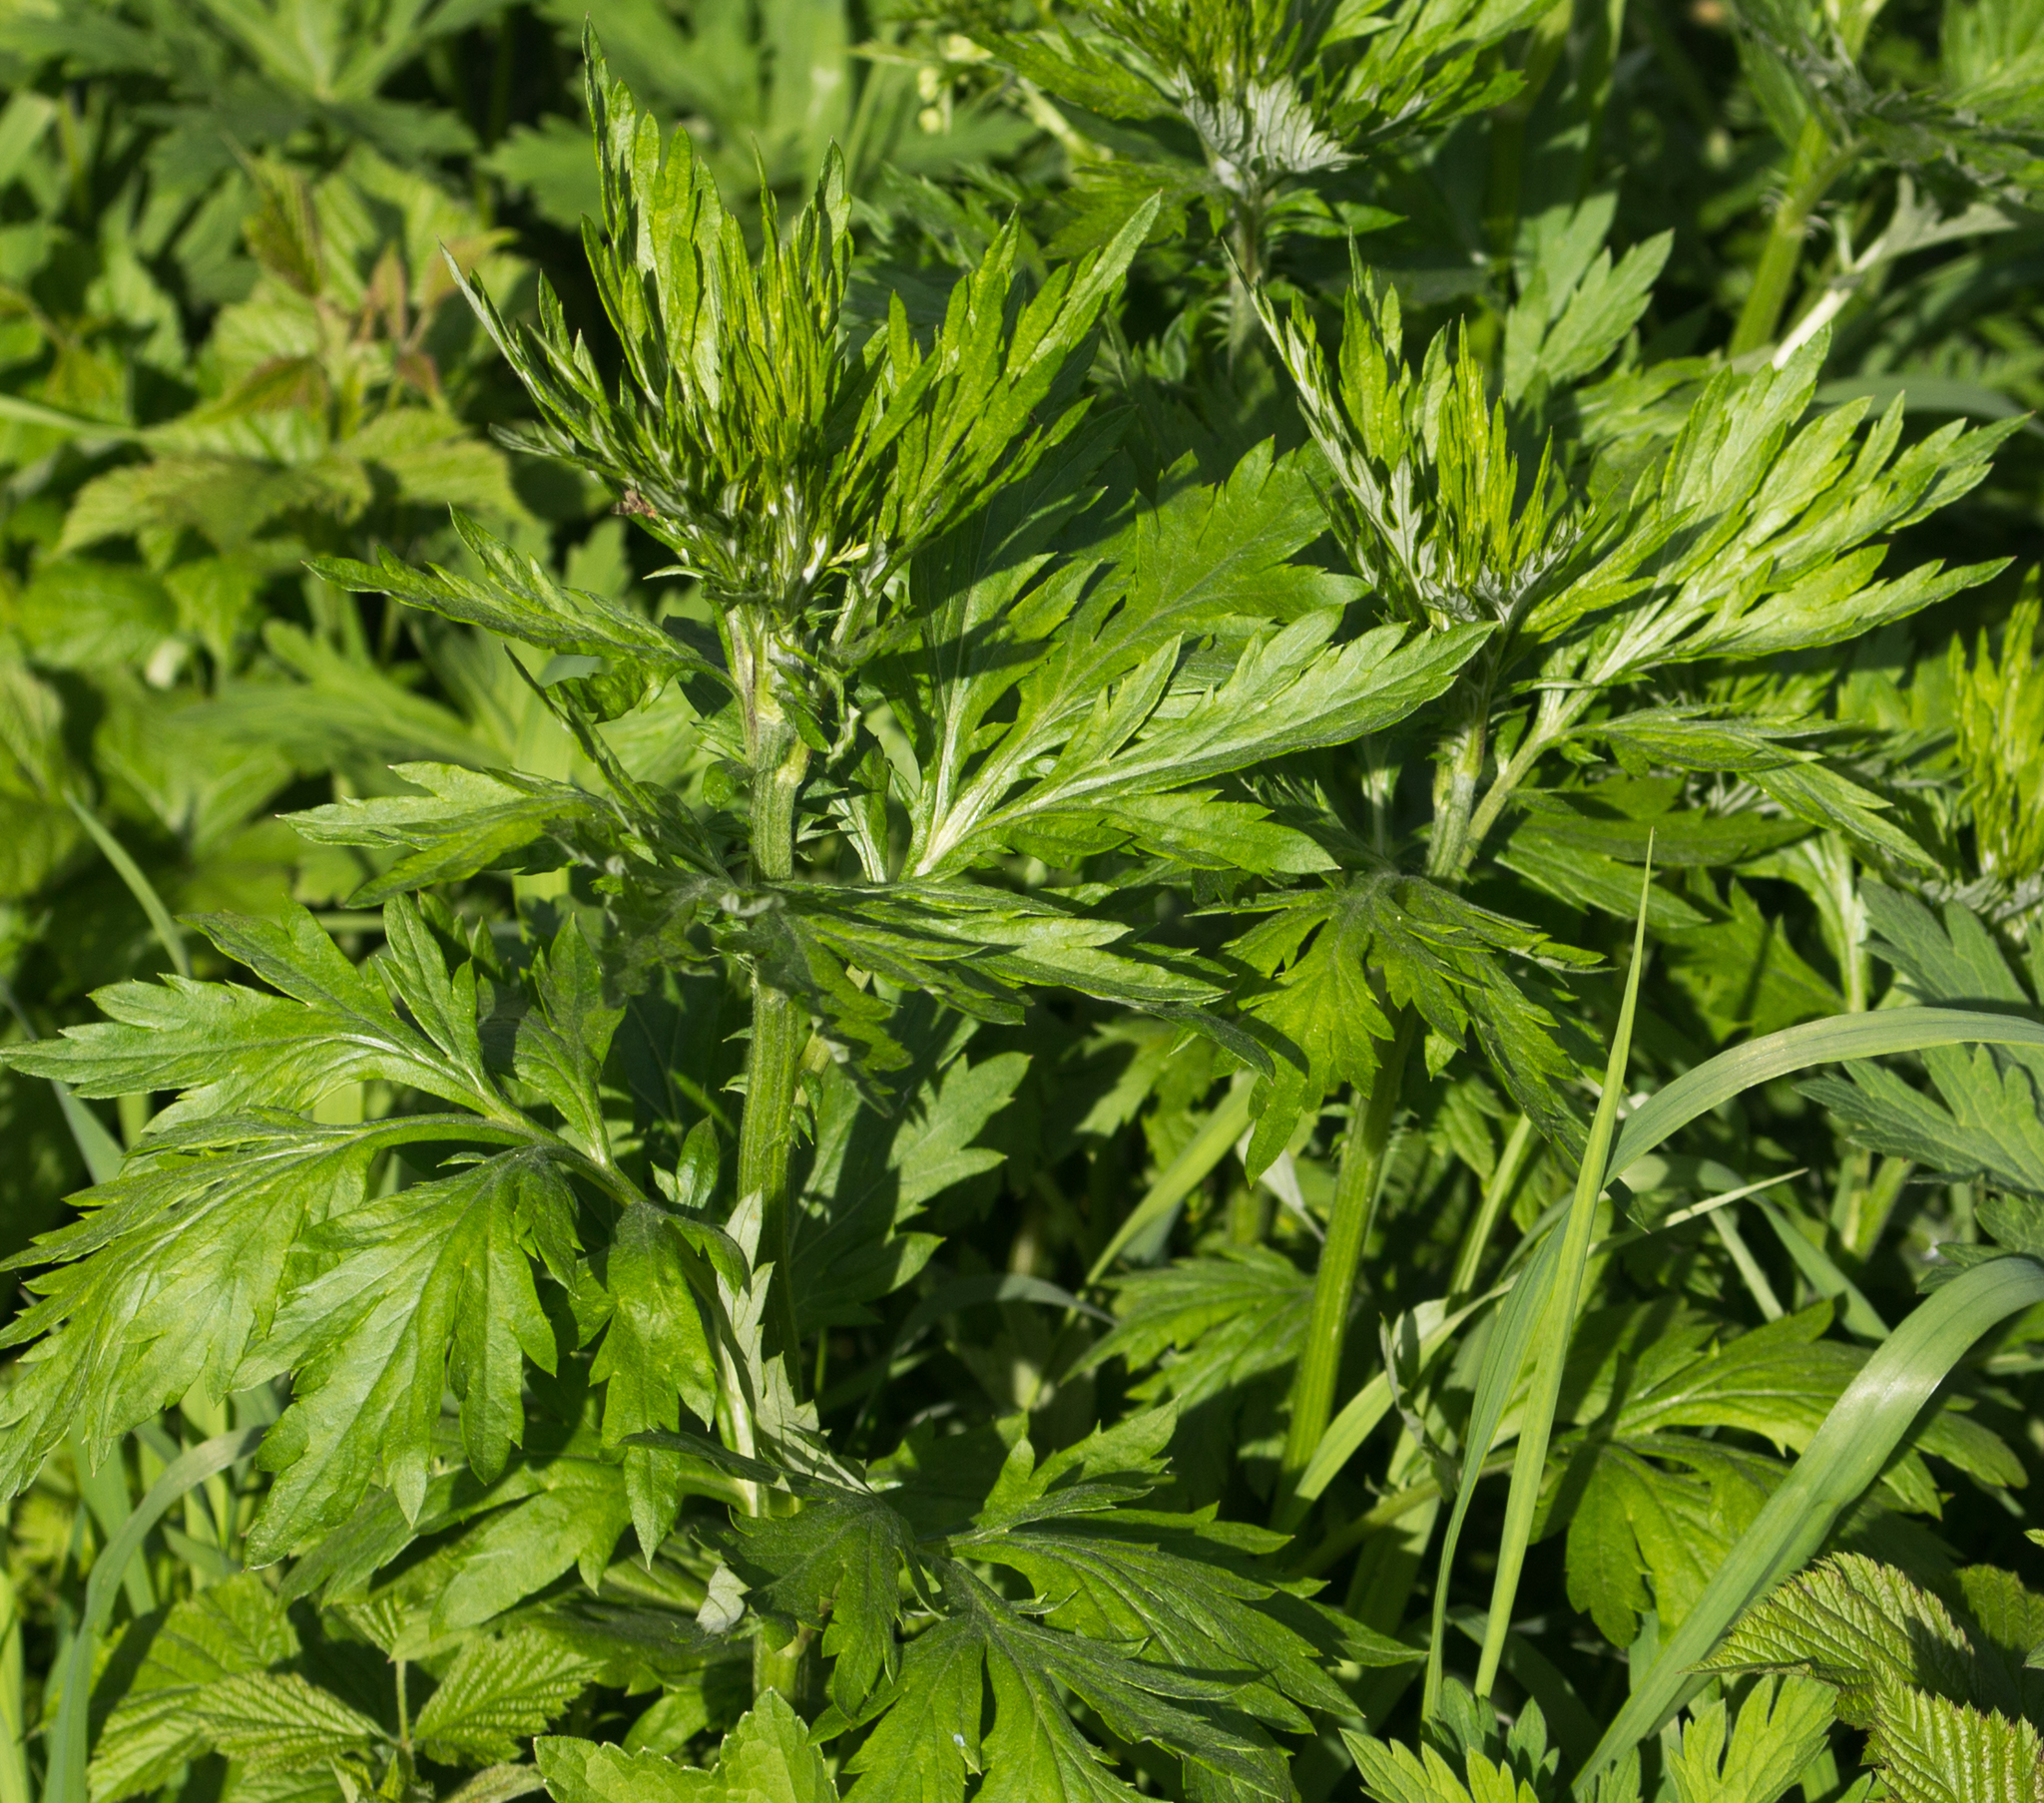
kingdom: Plantae
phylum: Tracheophyta
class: Magnoliopsida
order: Asterales
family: Asteraceae
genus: Artemisia
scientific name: Artemisia vulgaris
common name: Mugwort
